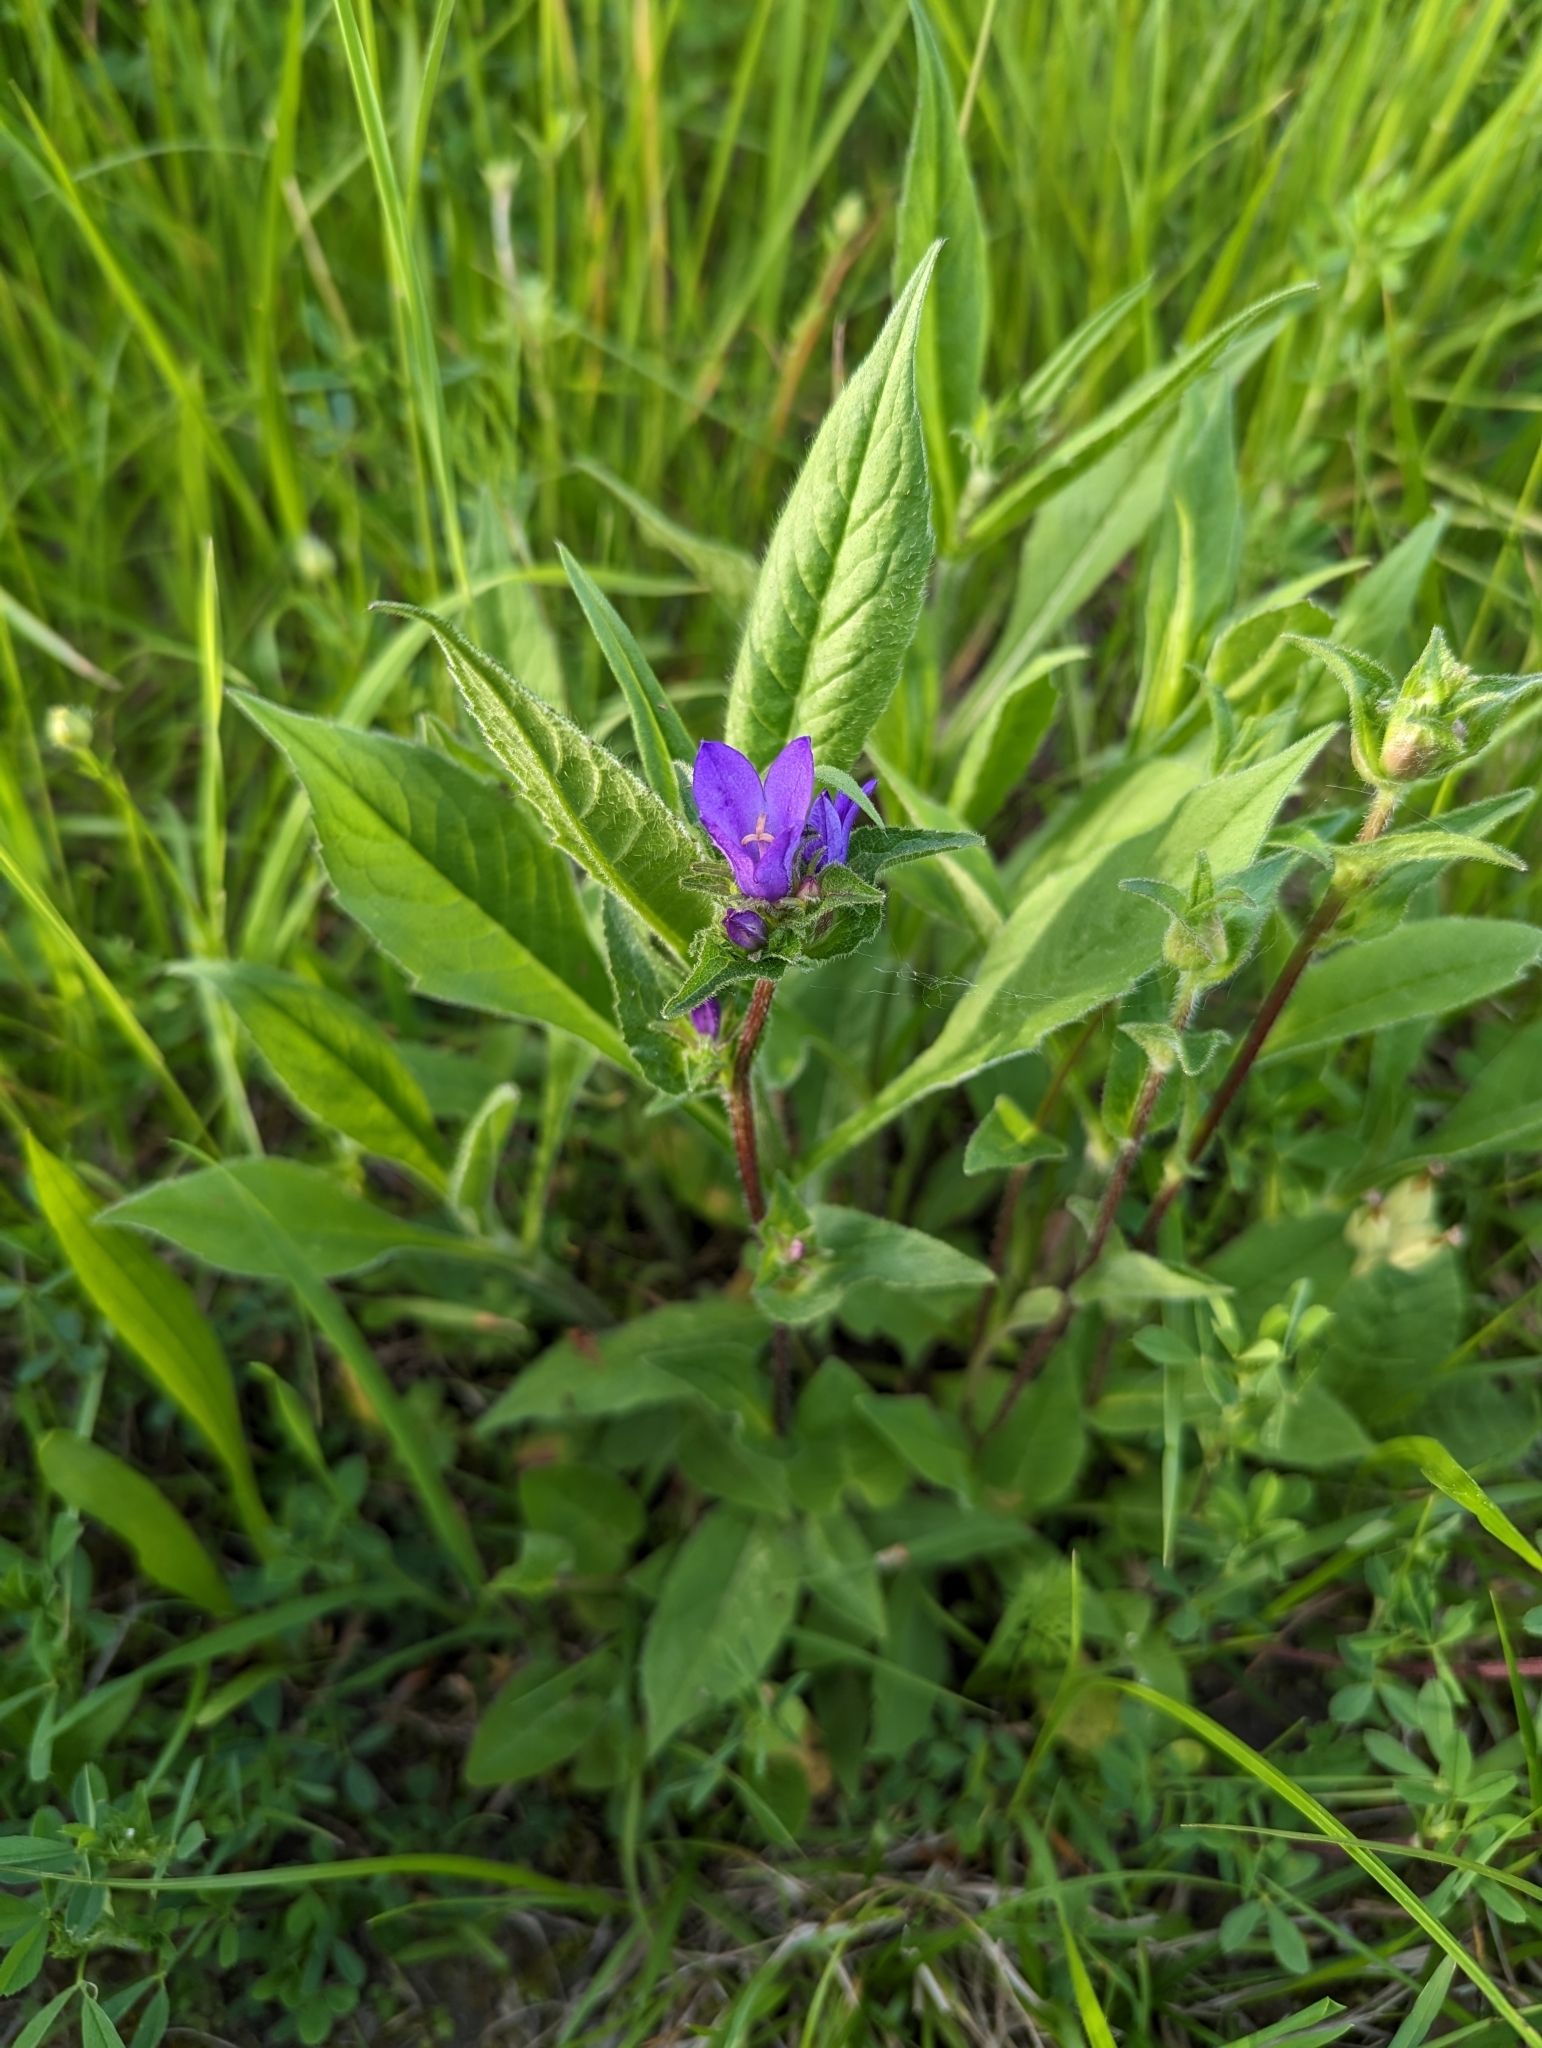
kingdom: Plantae
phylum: Tracheophyta
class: Magnoliopsida
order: Asterales
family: Campanulaceae
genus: Campanula
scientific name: Campanula glomerata
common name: Clustered bellflower
